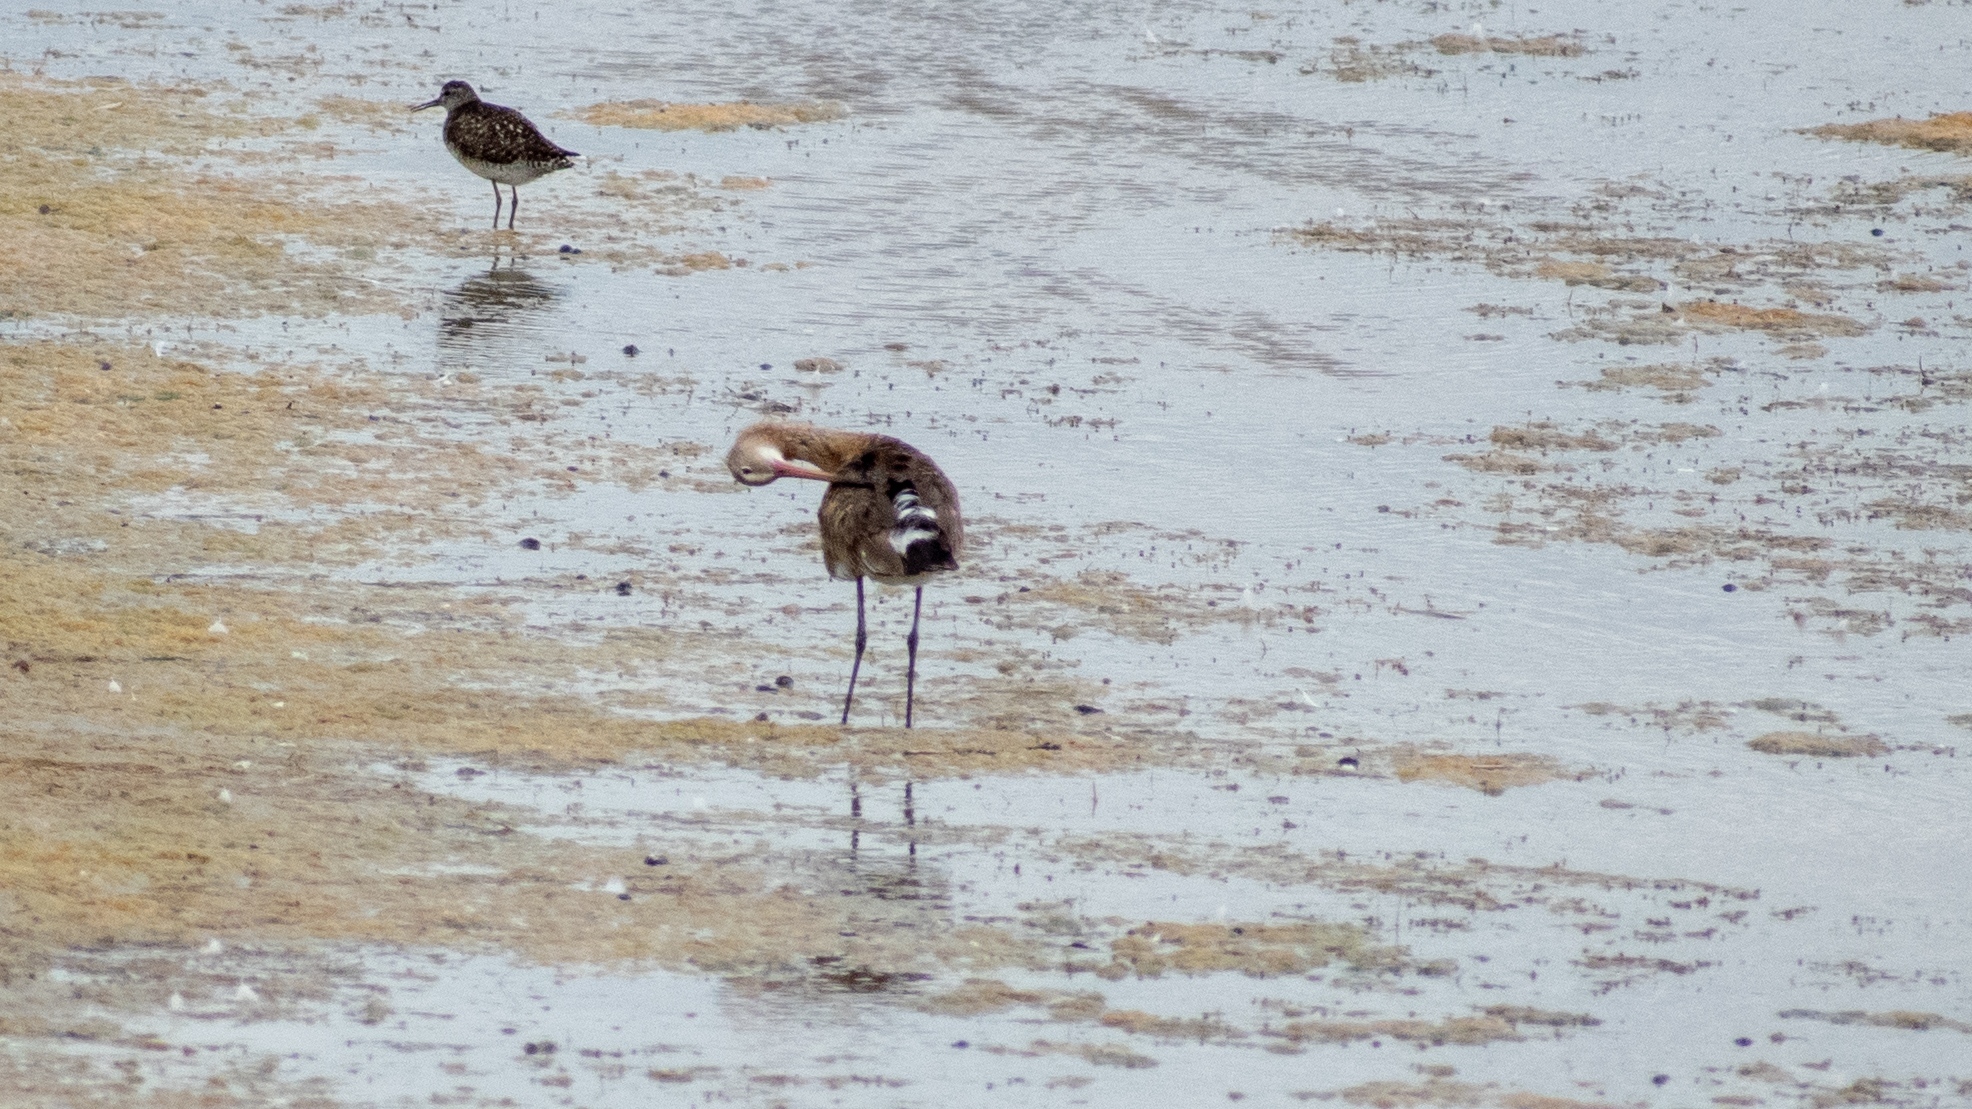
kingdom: Animalia
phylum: Chordata
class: Aves
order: Charadriiformes
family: Scolopacidae
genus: Tringa
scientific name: Tringa glareola
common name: Wood sandpiper
